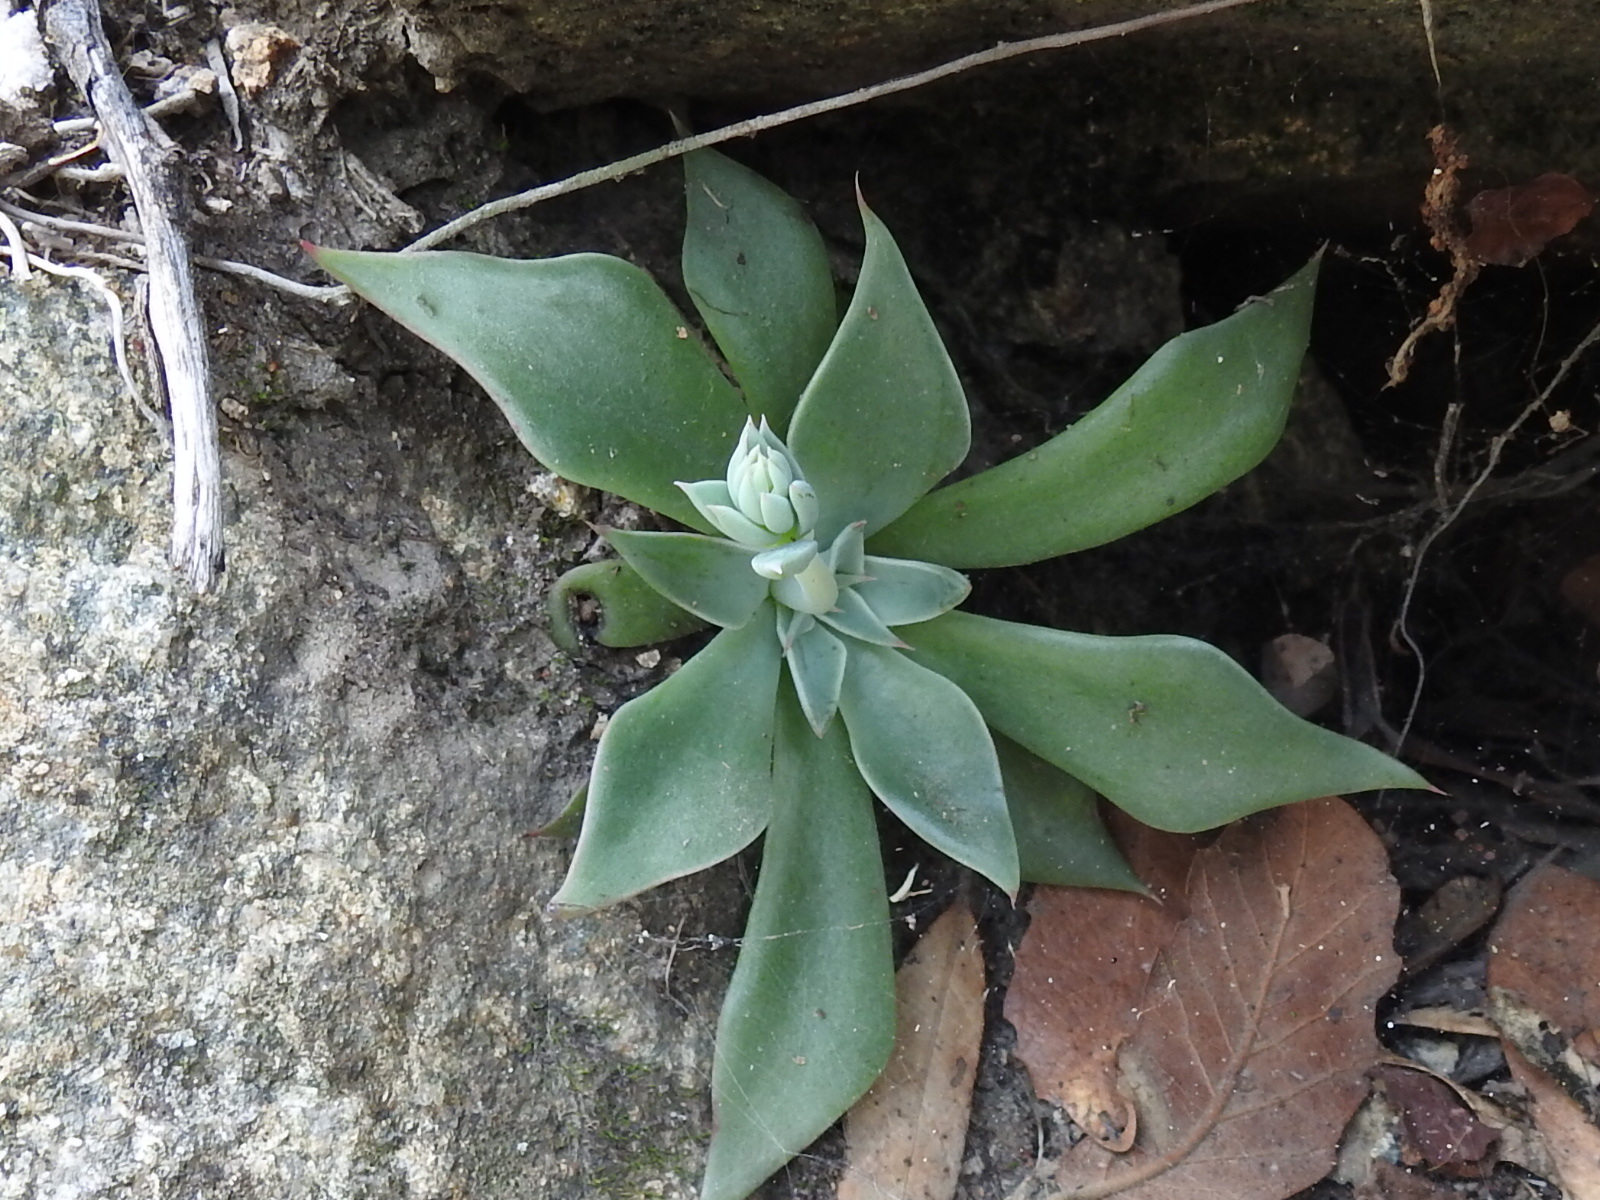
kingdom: Plantae
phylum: Tracheophyta
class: Magnoliopsida
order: Saxifragales
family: Crassulaceae
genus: Graptopetalum
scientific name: Graptopetalum bartramii
